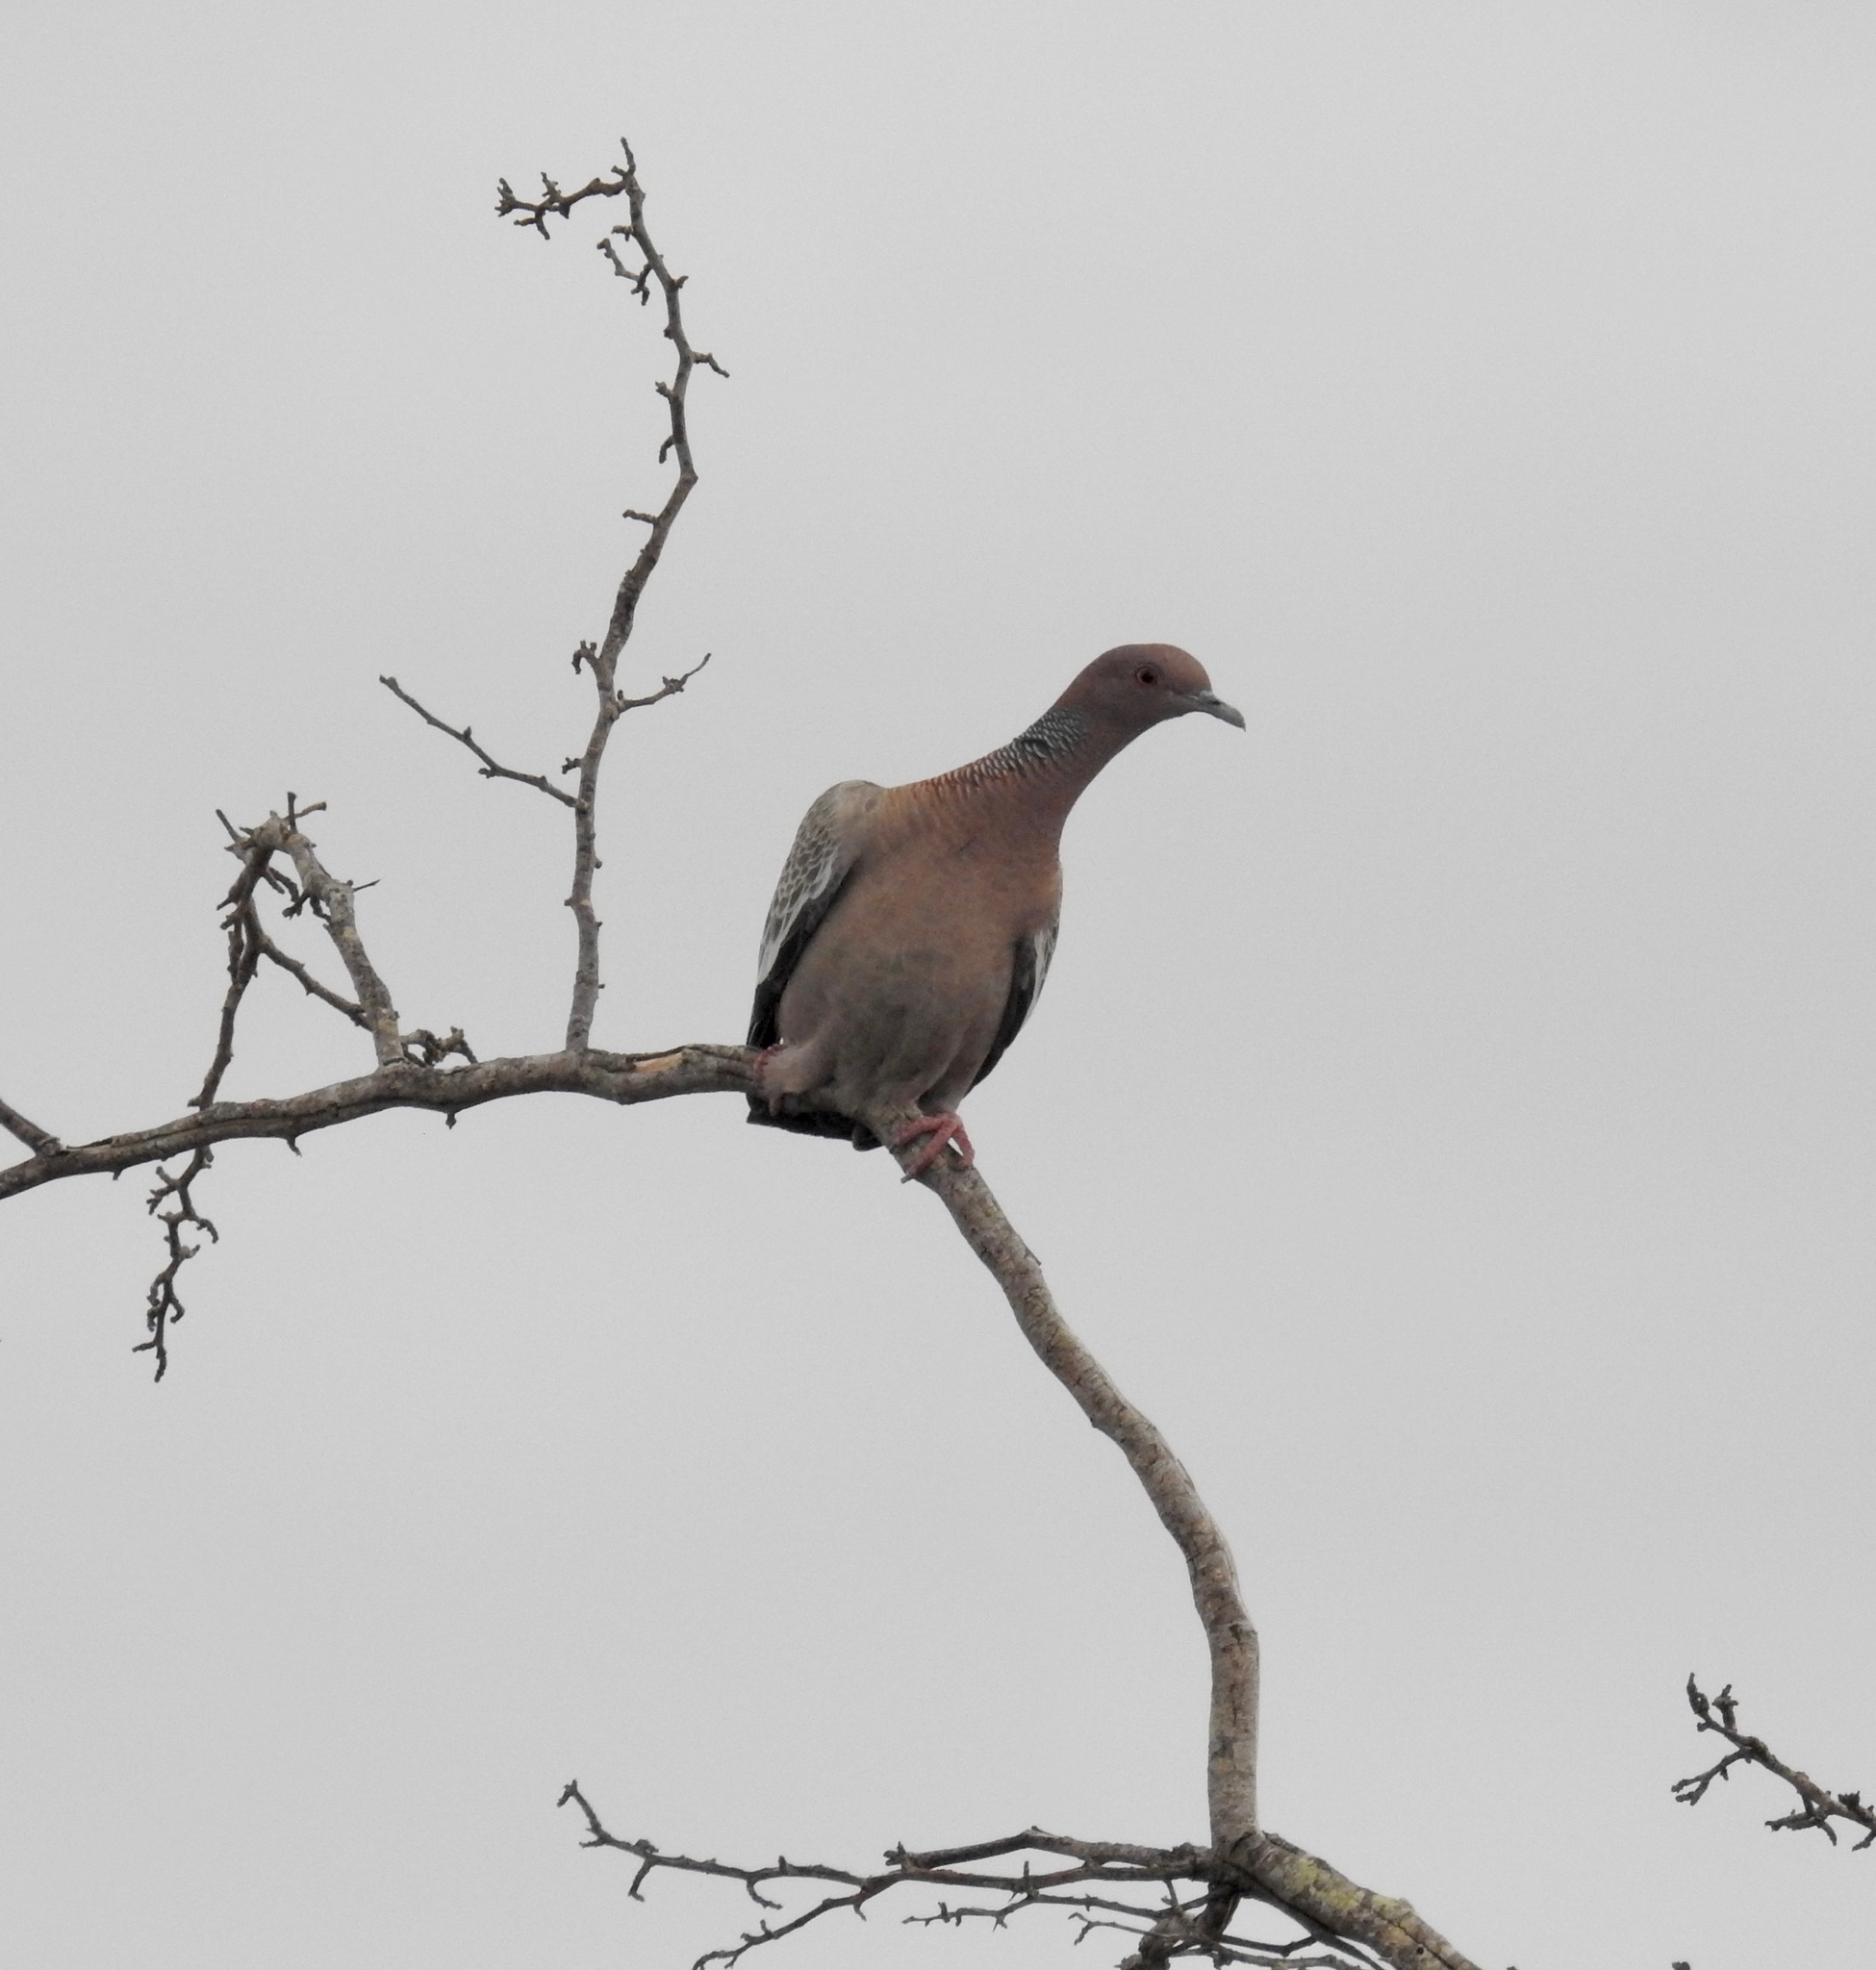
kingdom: Animalia
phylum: Chordata
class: Aves
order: Columbiformes
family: Columbidae
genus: Patagioenas
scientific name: Patagioenas picazuro
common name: Picazuro pigeon
